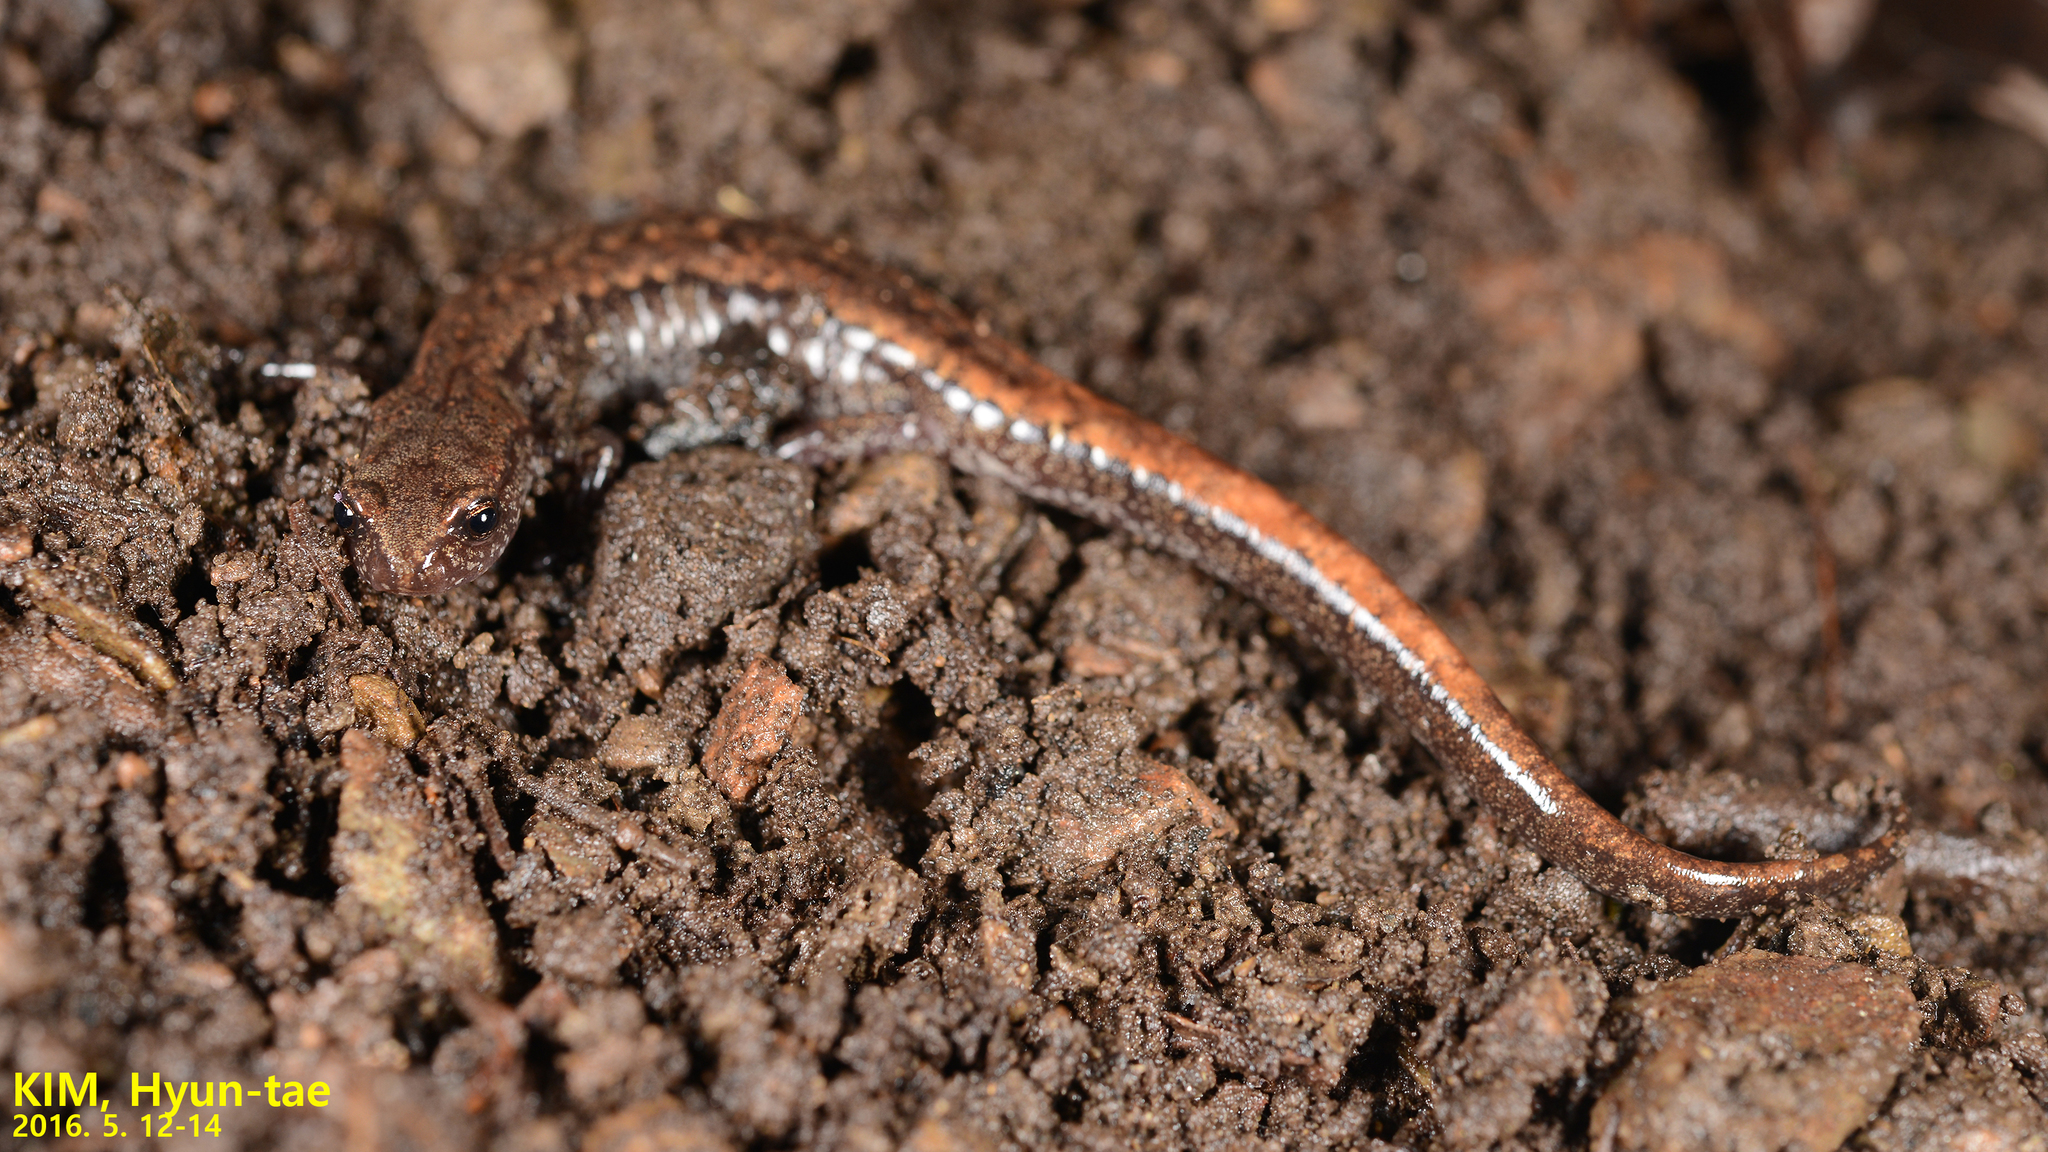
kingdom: Animalia
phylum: Chordata
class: Amphibia
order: Caudata
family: Plethodontidae
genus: Karsenia
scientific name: Karsenia koreana
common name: Korean crevice salamander
